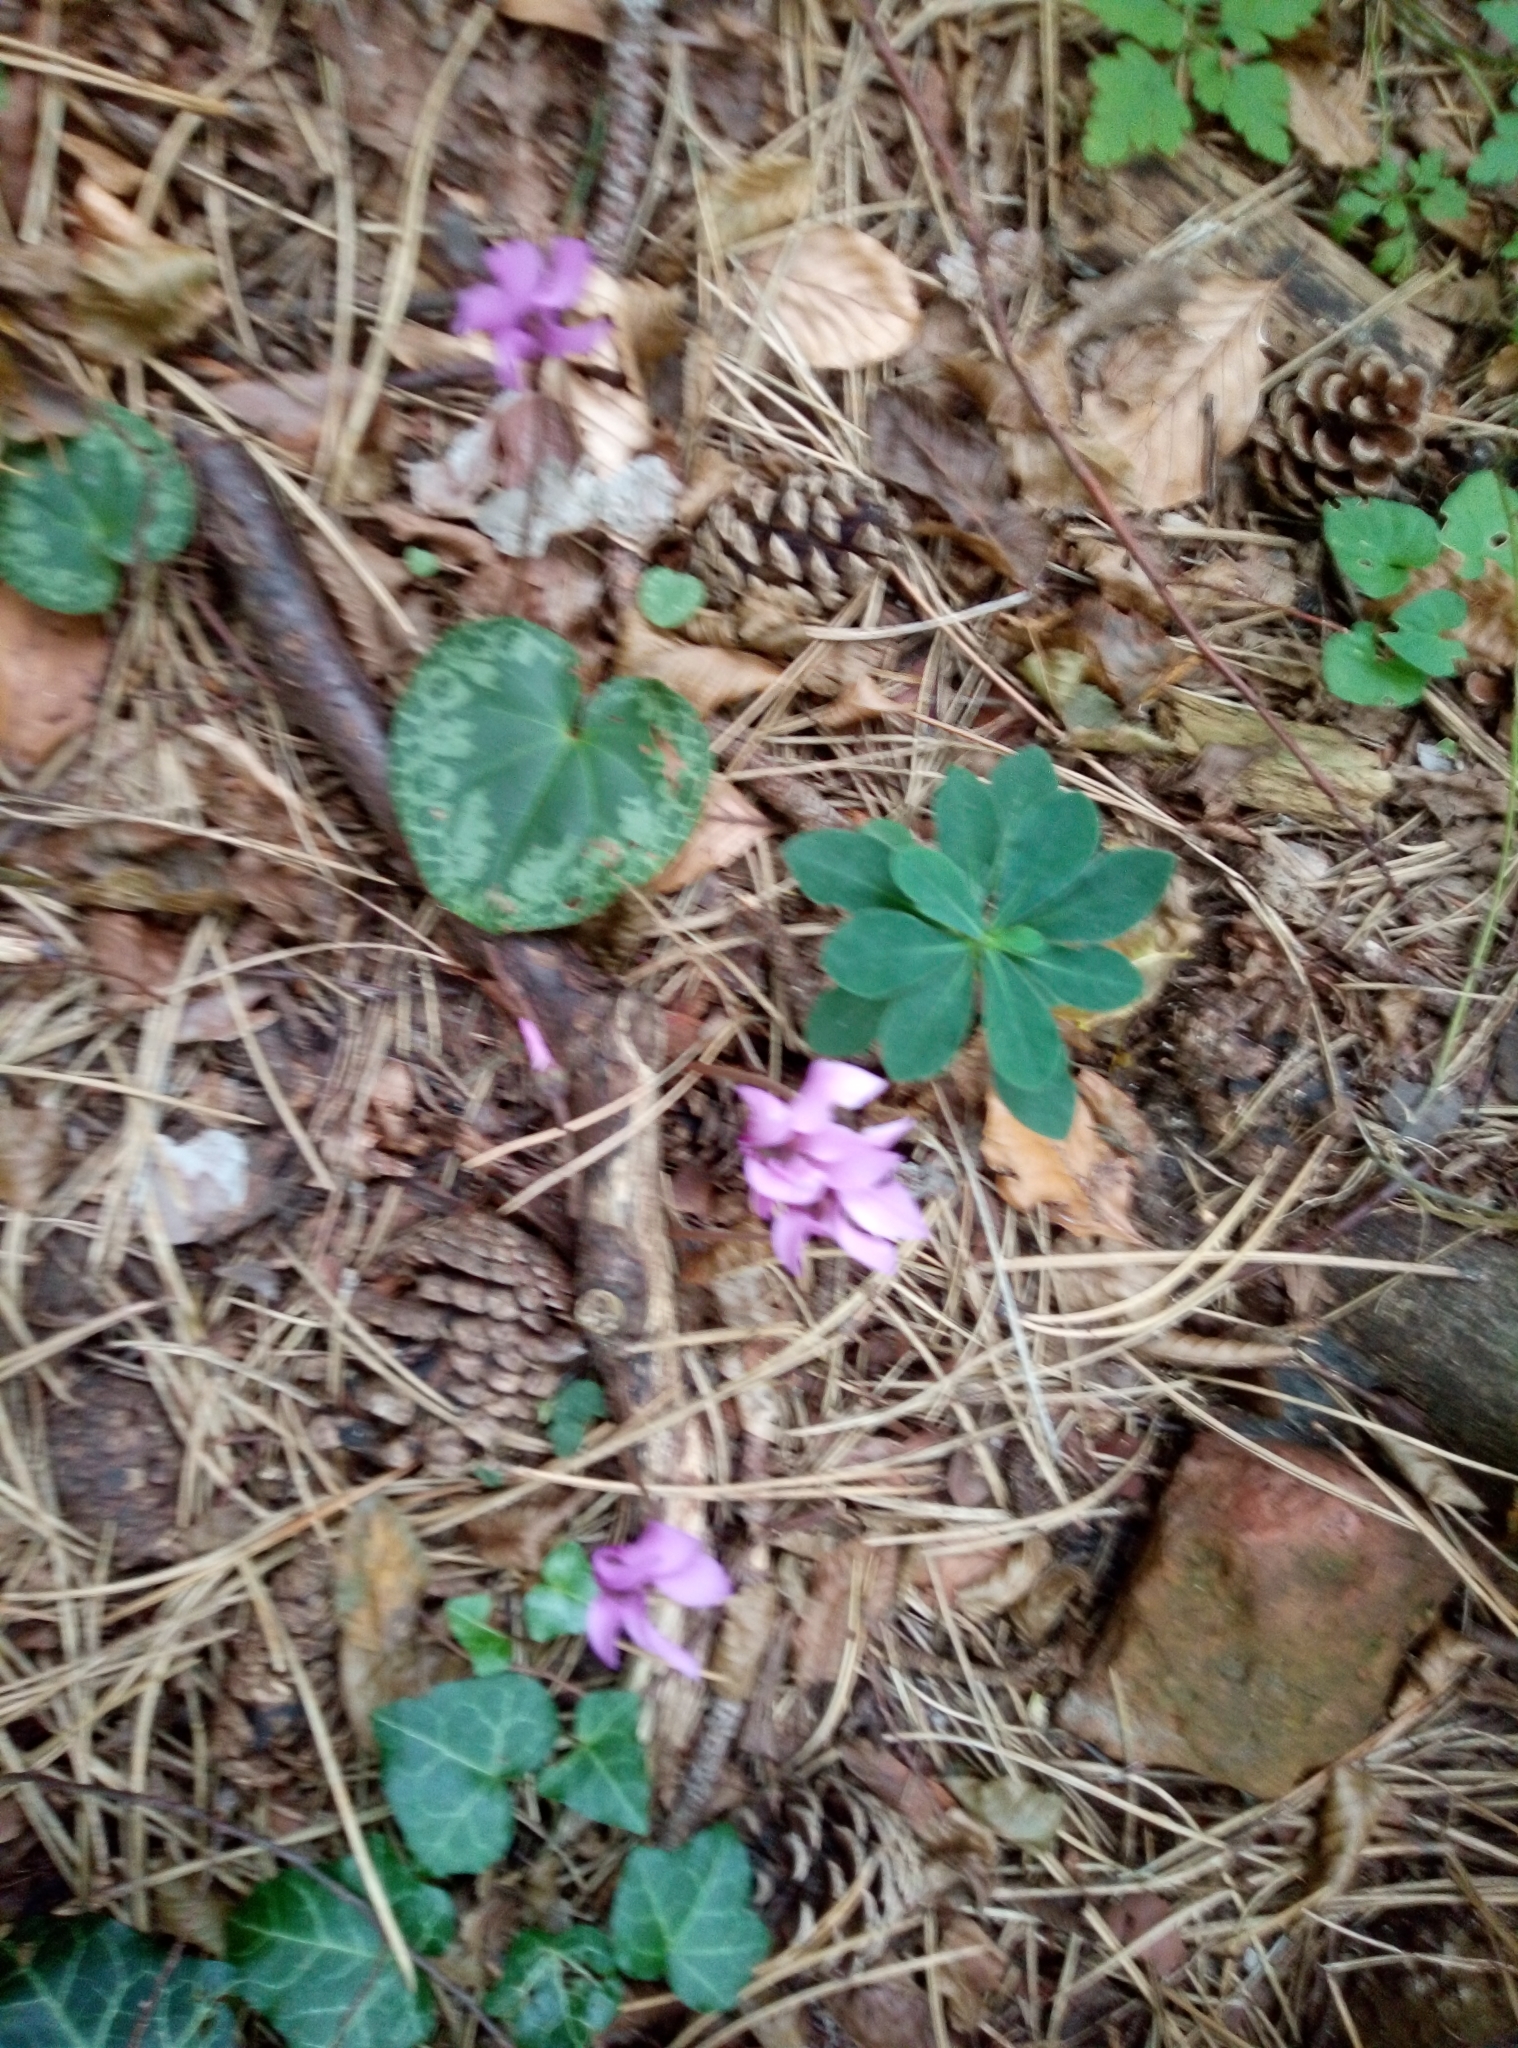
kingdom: Plantae
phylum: Tracheophyta
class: Magnoliopsida
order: Ericales
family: Primulaceae
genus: Cyclamen
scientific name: Cyclamen purpurascens
